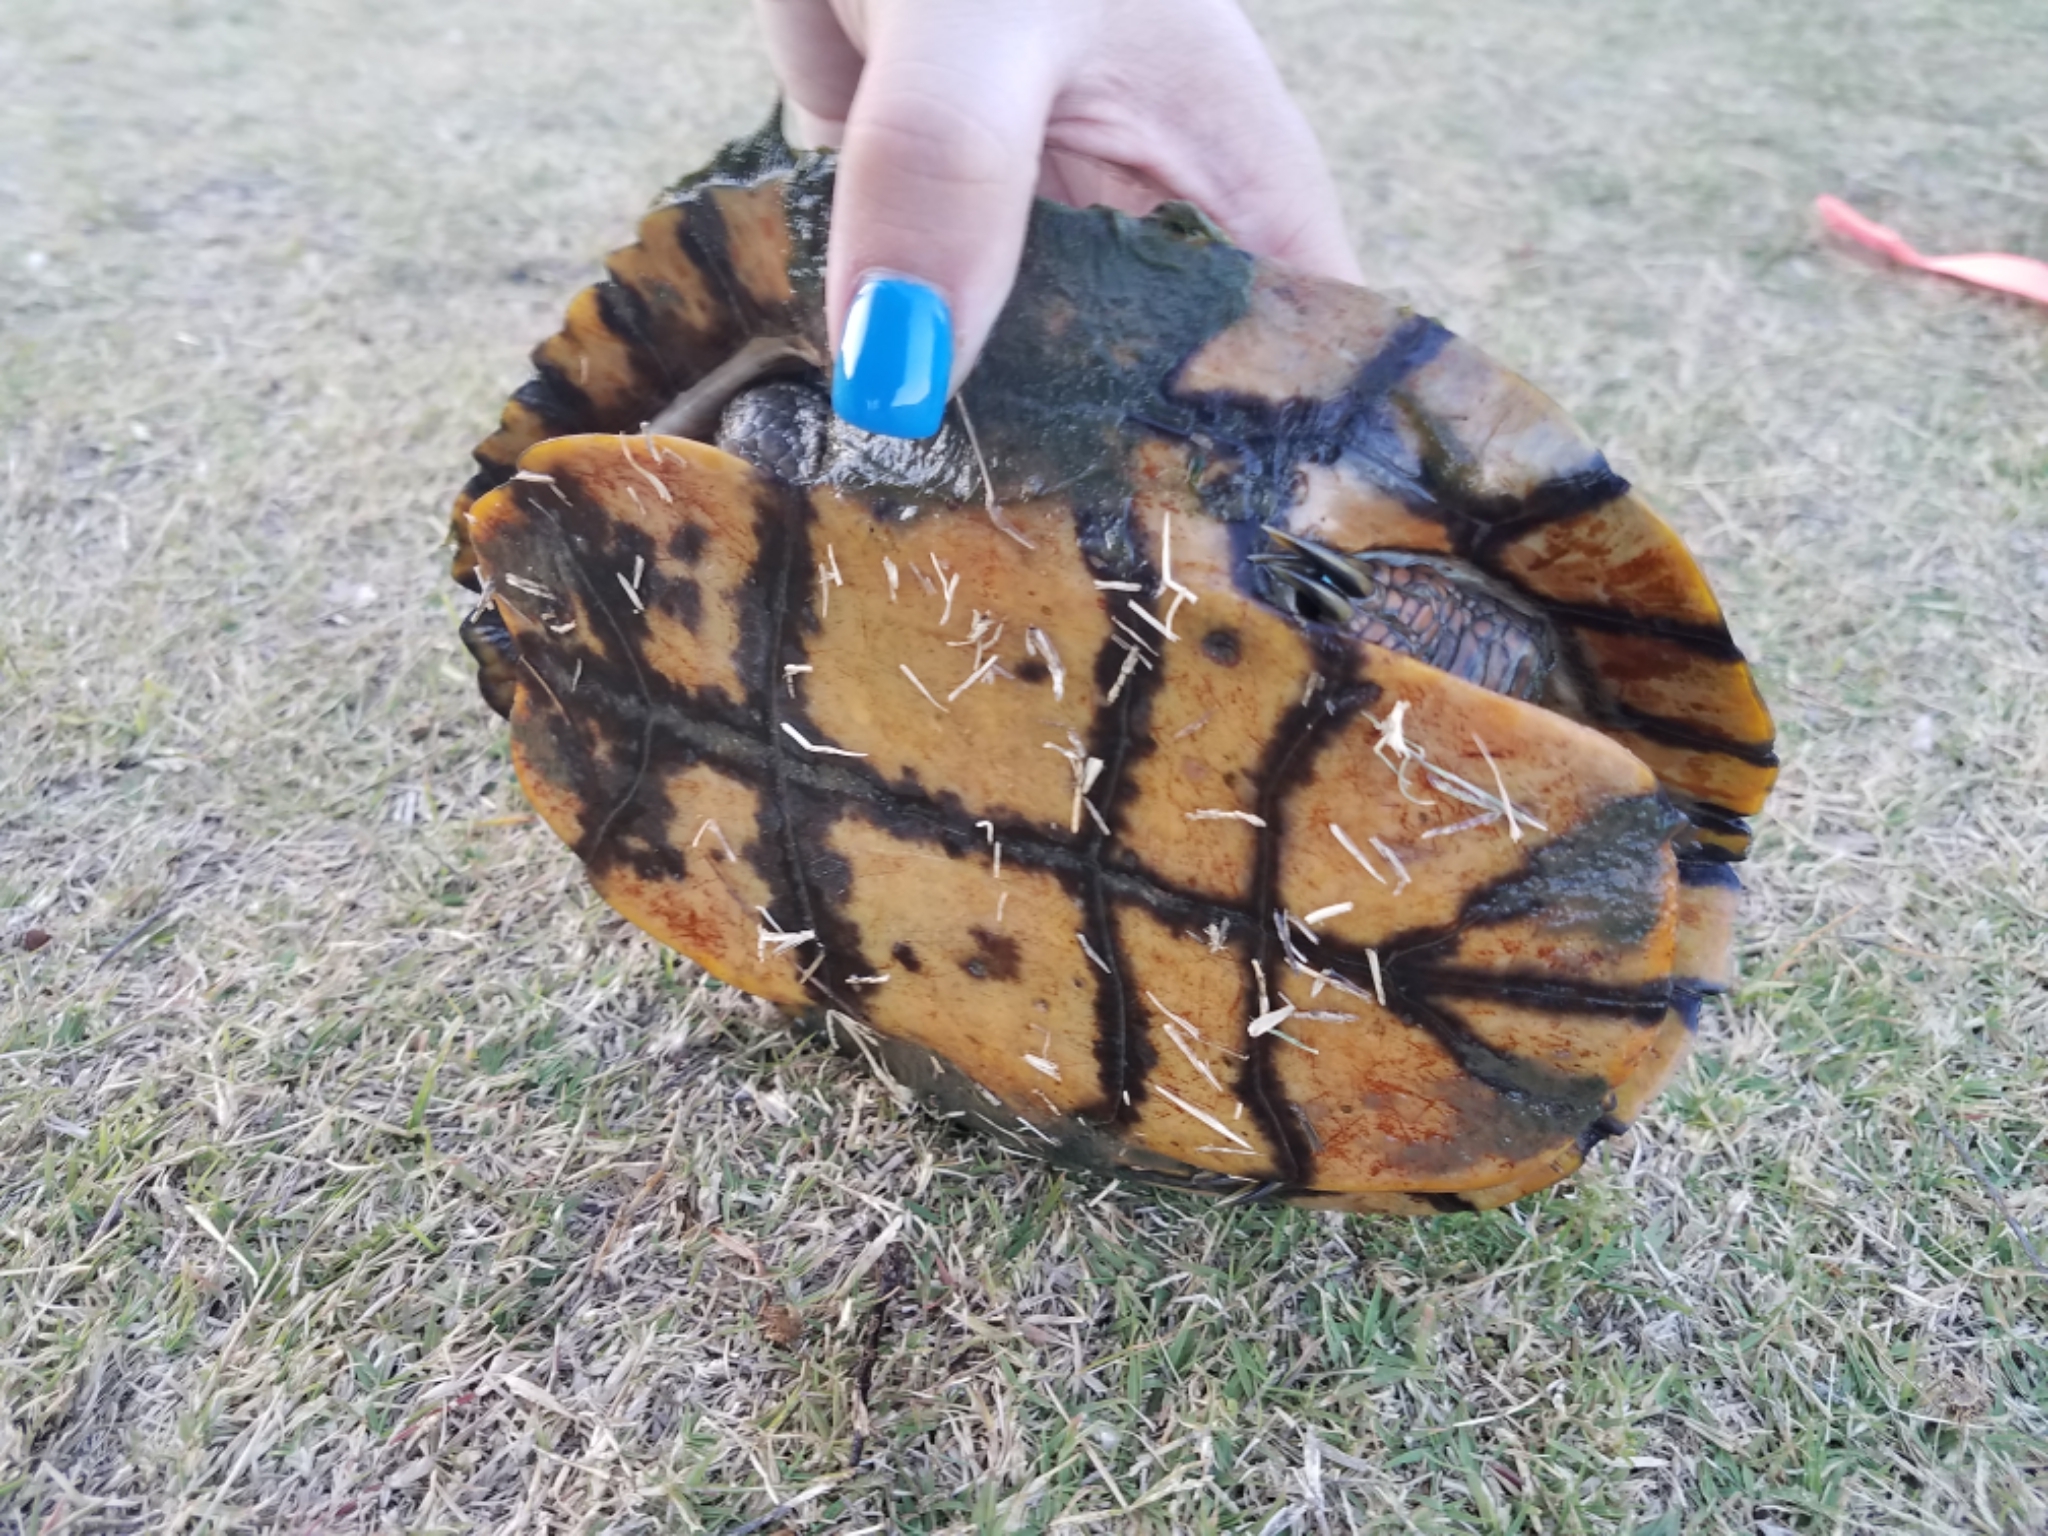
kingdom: Animalia
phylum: Chordata
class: Testudines
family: Emydidae
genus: Trachemys
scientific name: Trachemys scripta
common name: Slider
